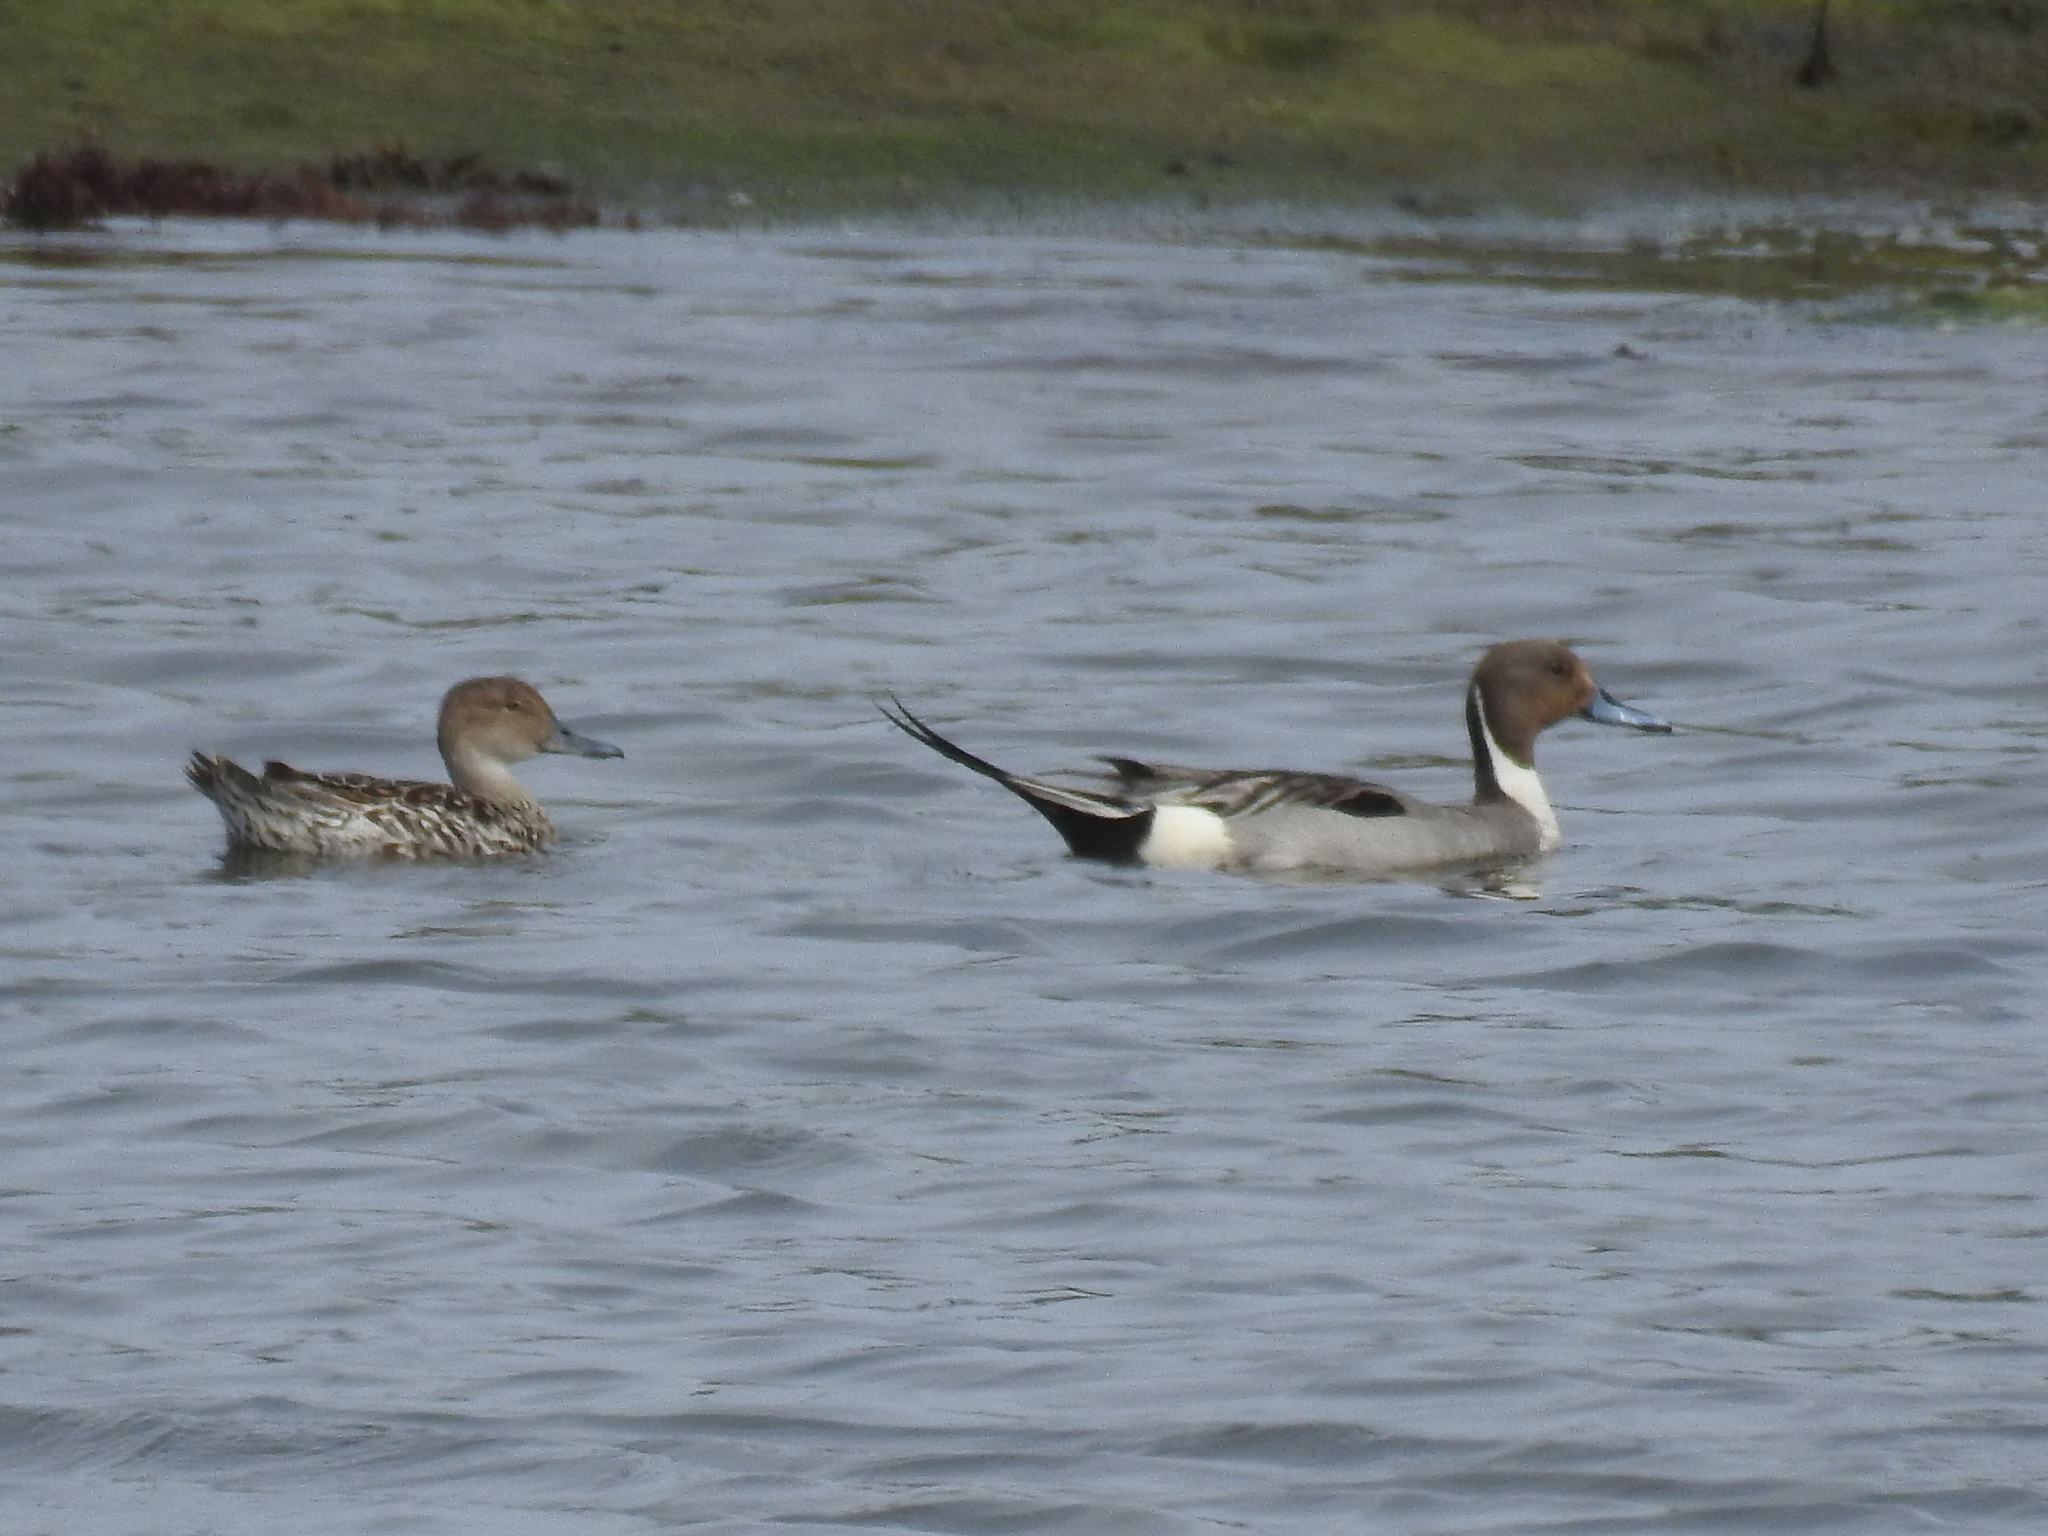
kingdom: Animalia
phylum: Chordata
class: Aves
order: Anseriformes
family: Anatidae
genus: Anas
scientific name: Anas acuta
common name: Northern pintail
